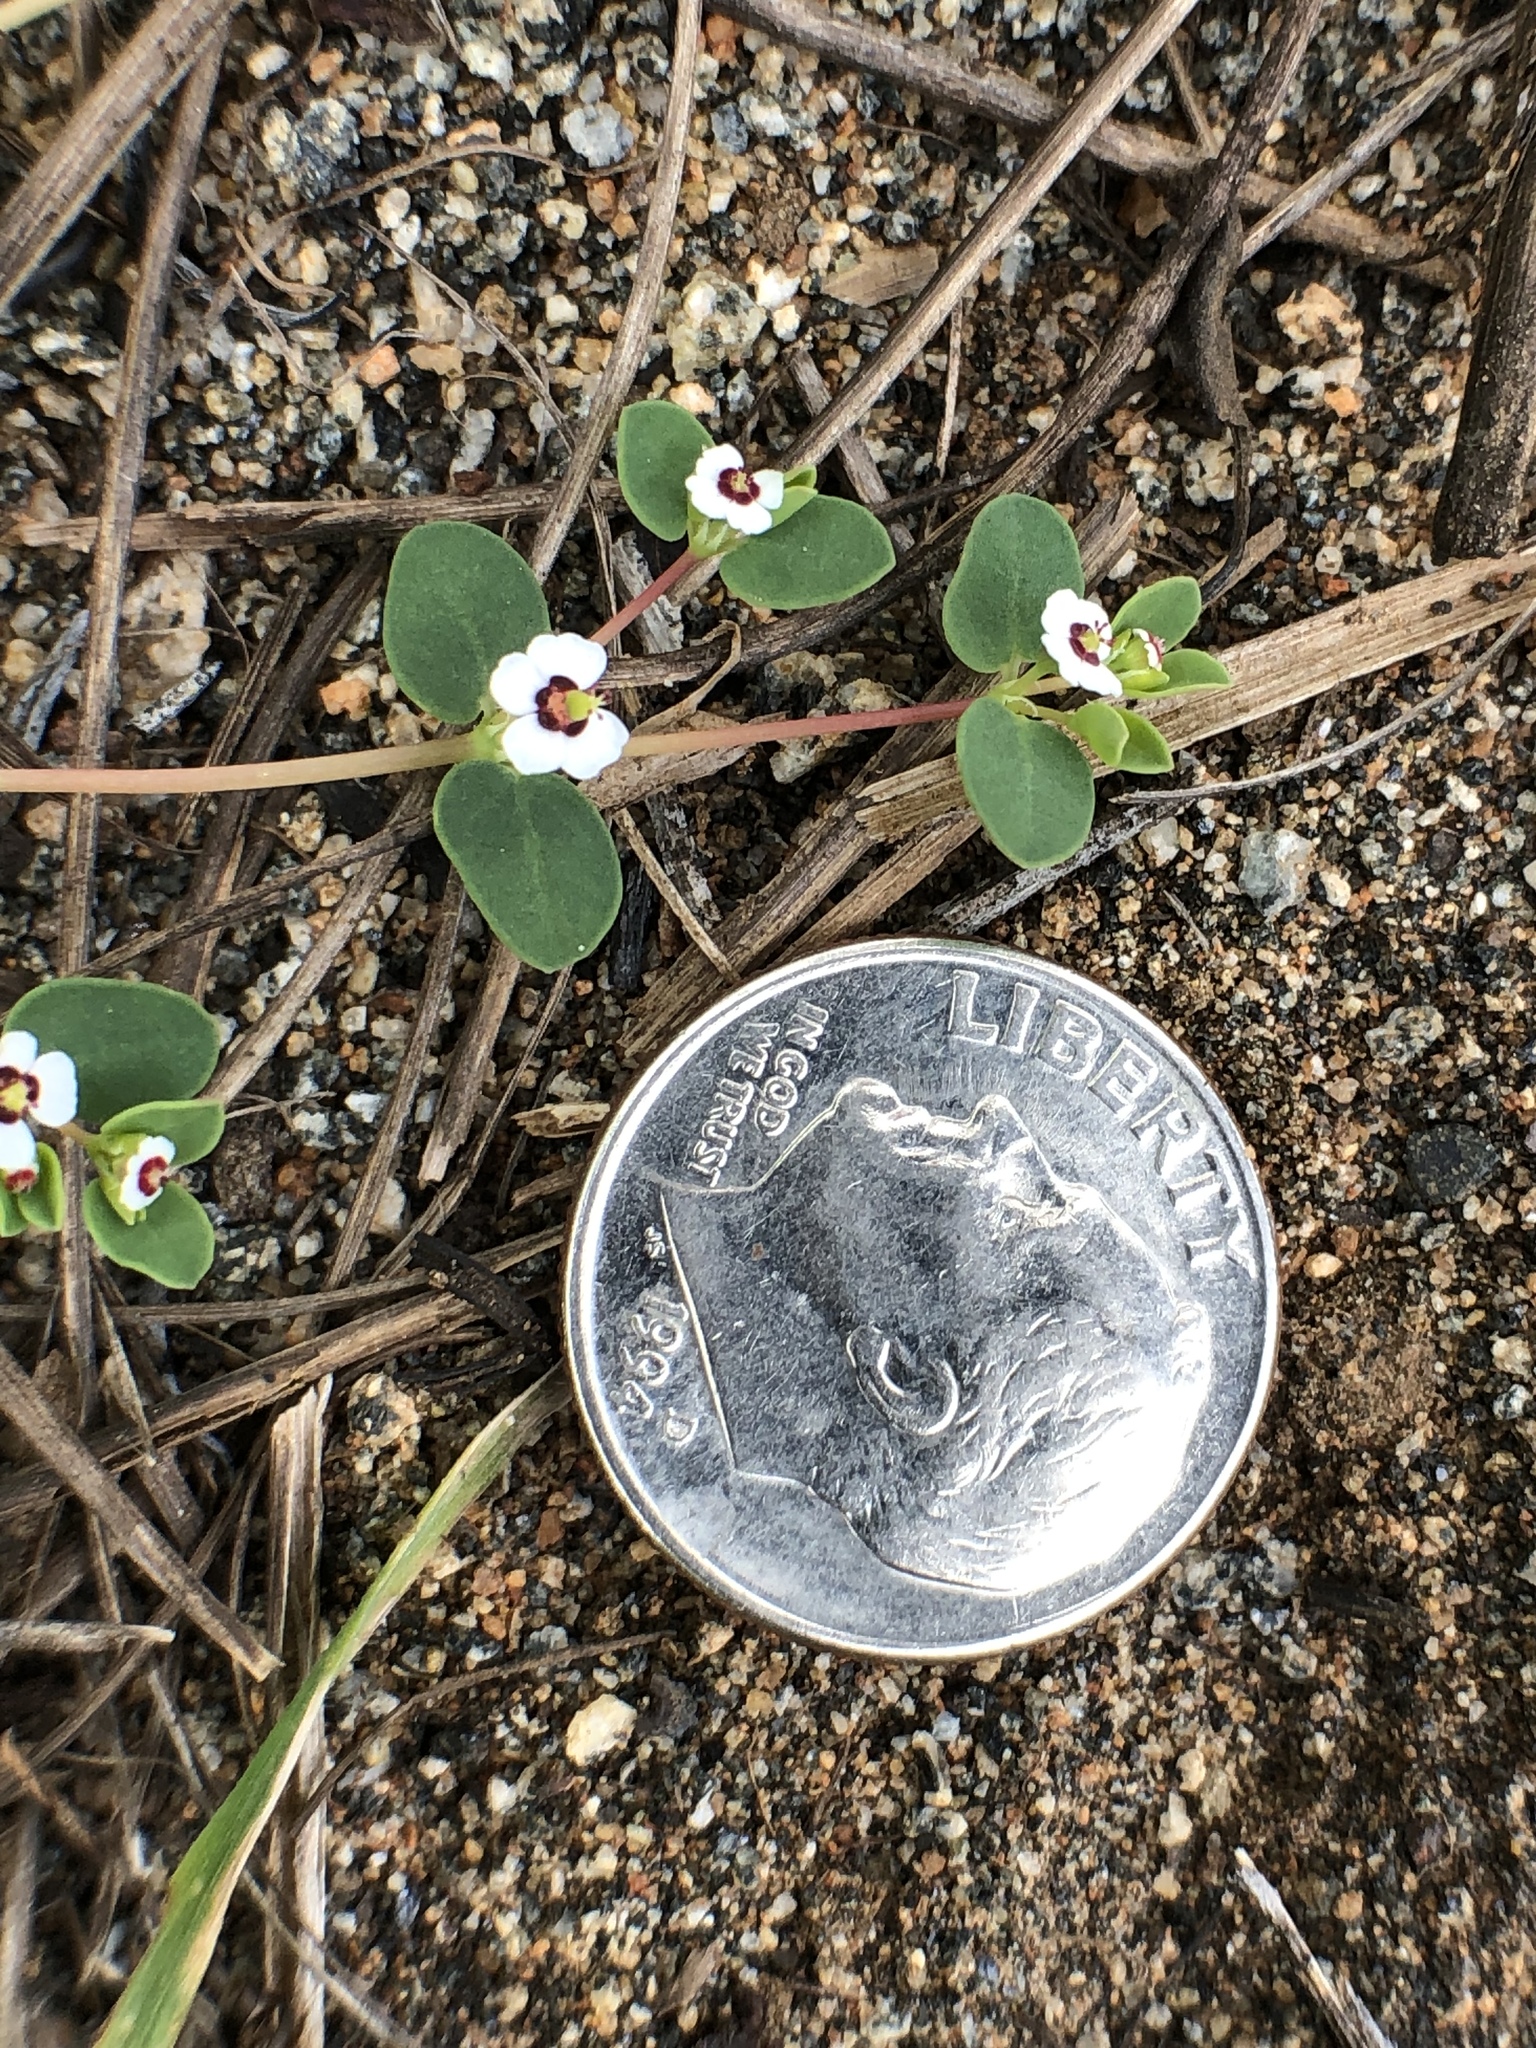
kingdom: Plantae
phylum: Tracheophyta
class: Magnoliopsida
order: Malpighiales
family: Euphorbiaceae
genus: Euphorbia
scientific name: Euphorbia polycarpa
